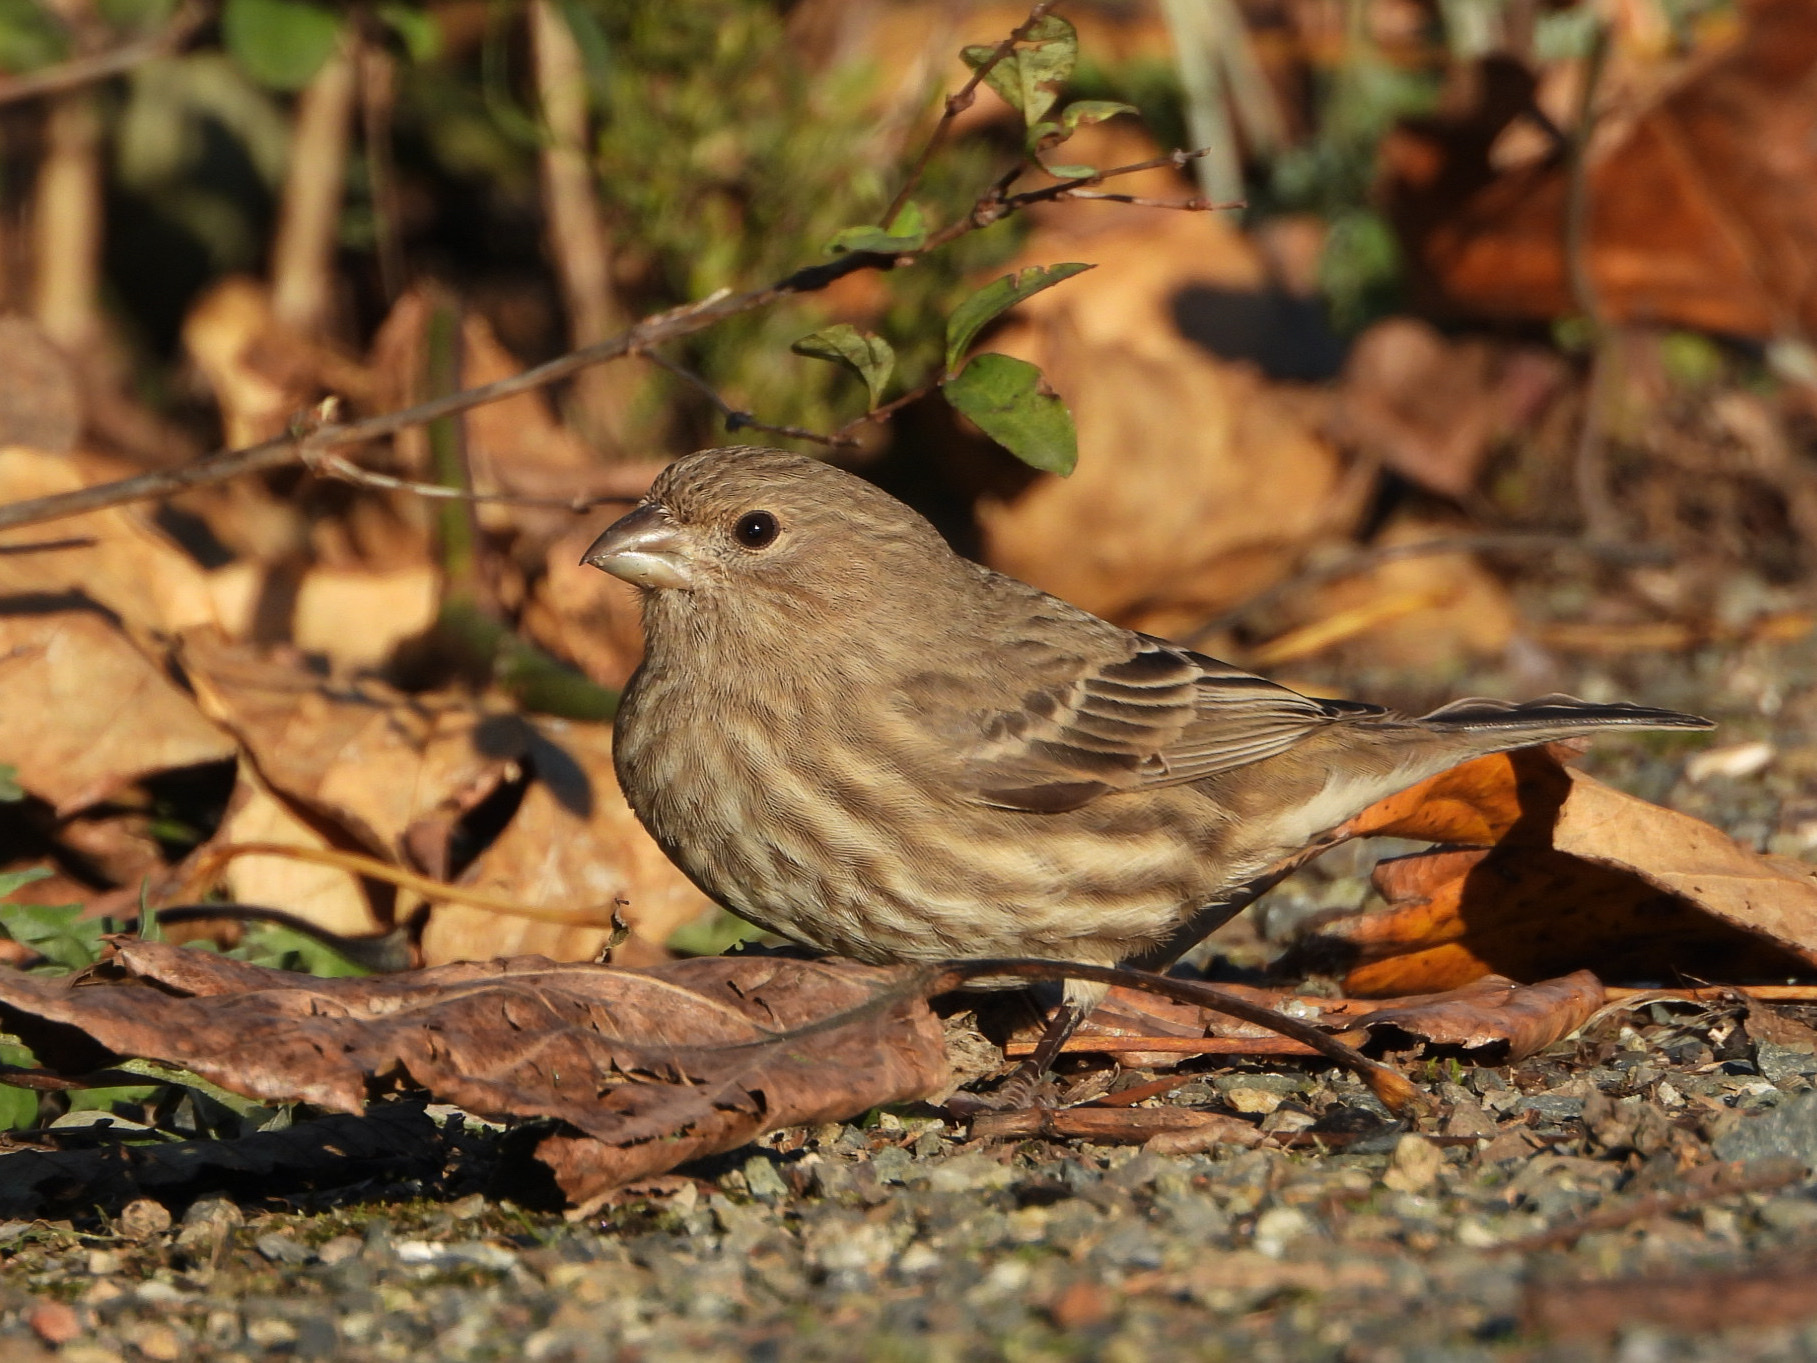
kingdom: Animalia
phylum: Chordata
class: Aves
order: Passeriformes
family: Fringillidae
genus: Haemorhous
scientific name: Haemorhous mexicanus
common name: House finch
